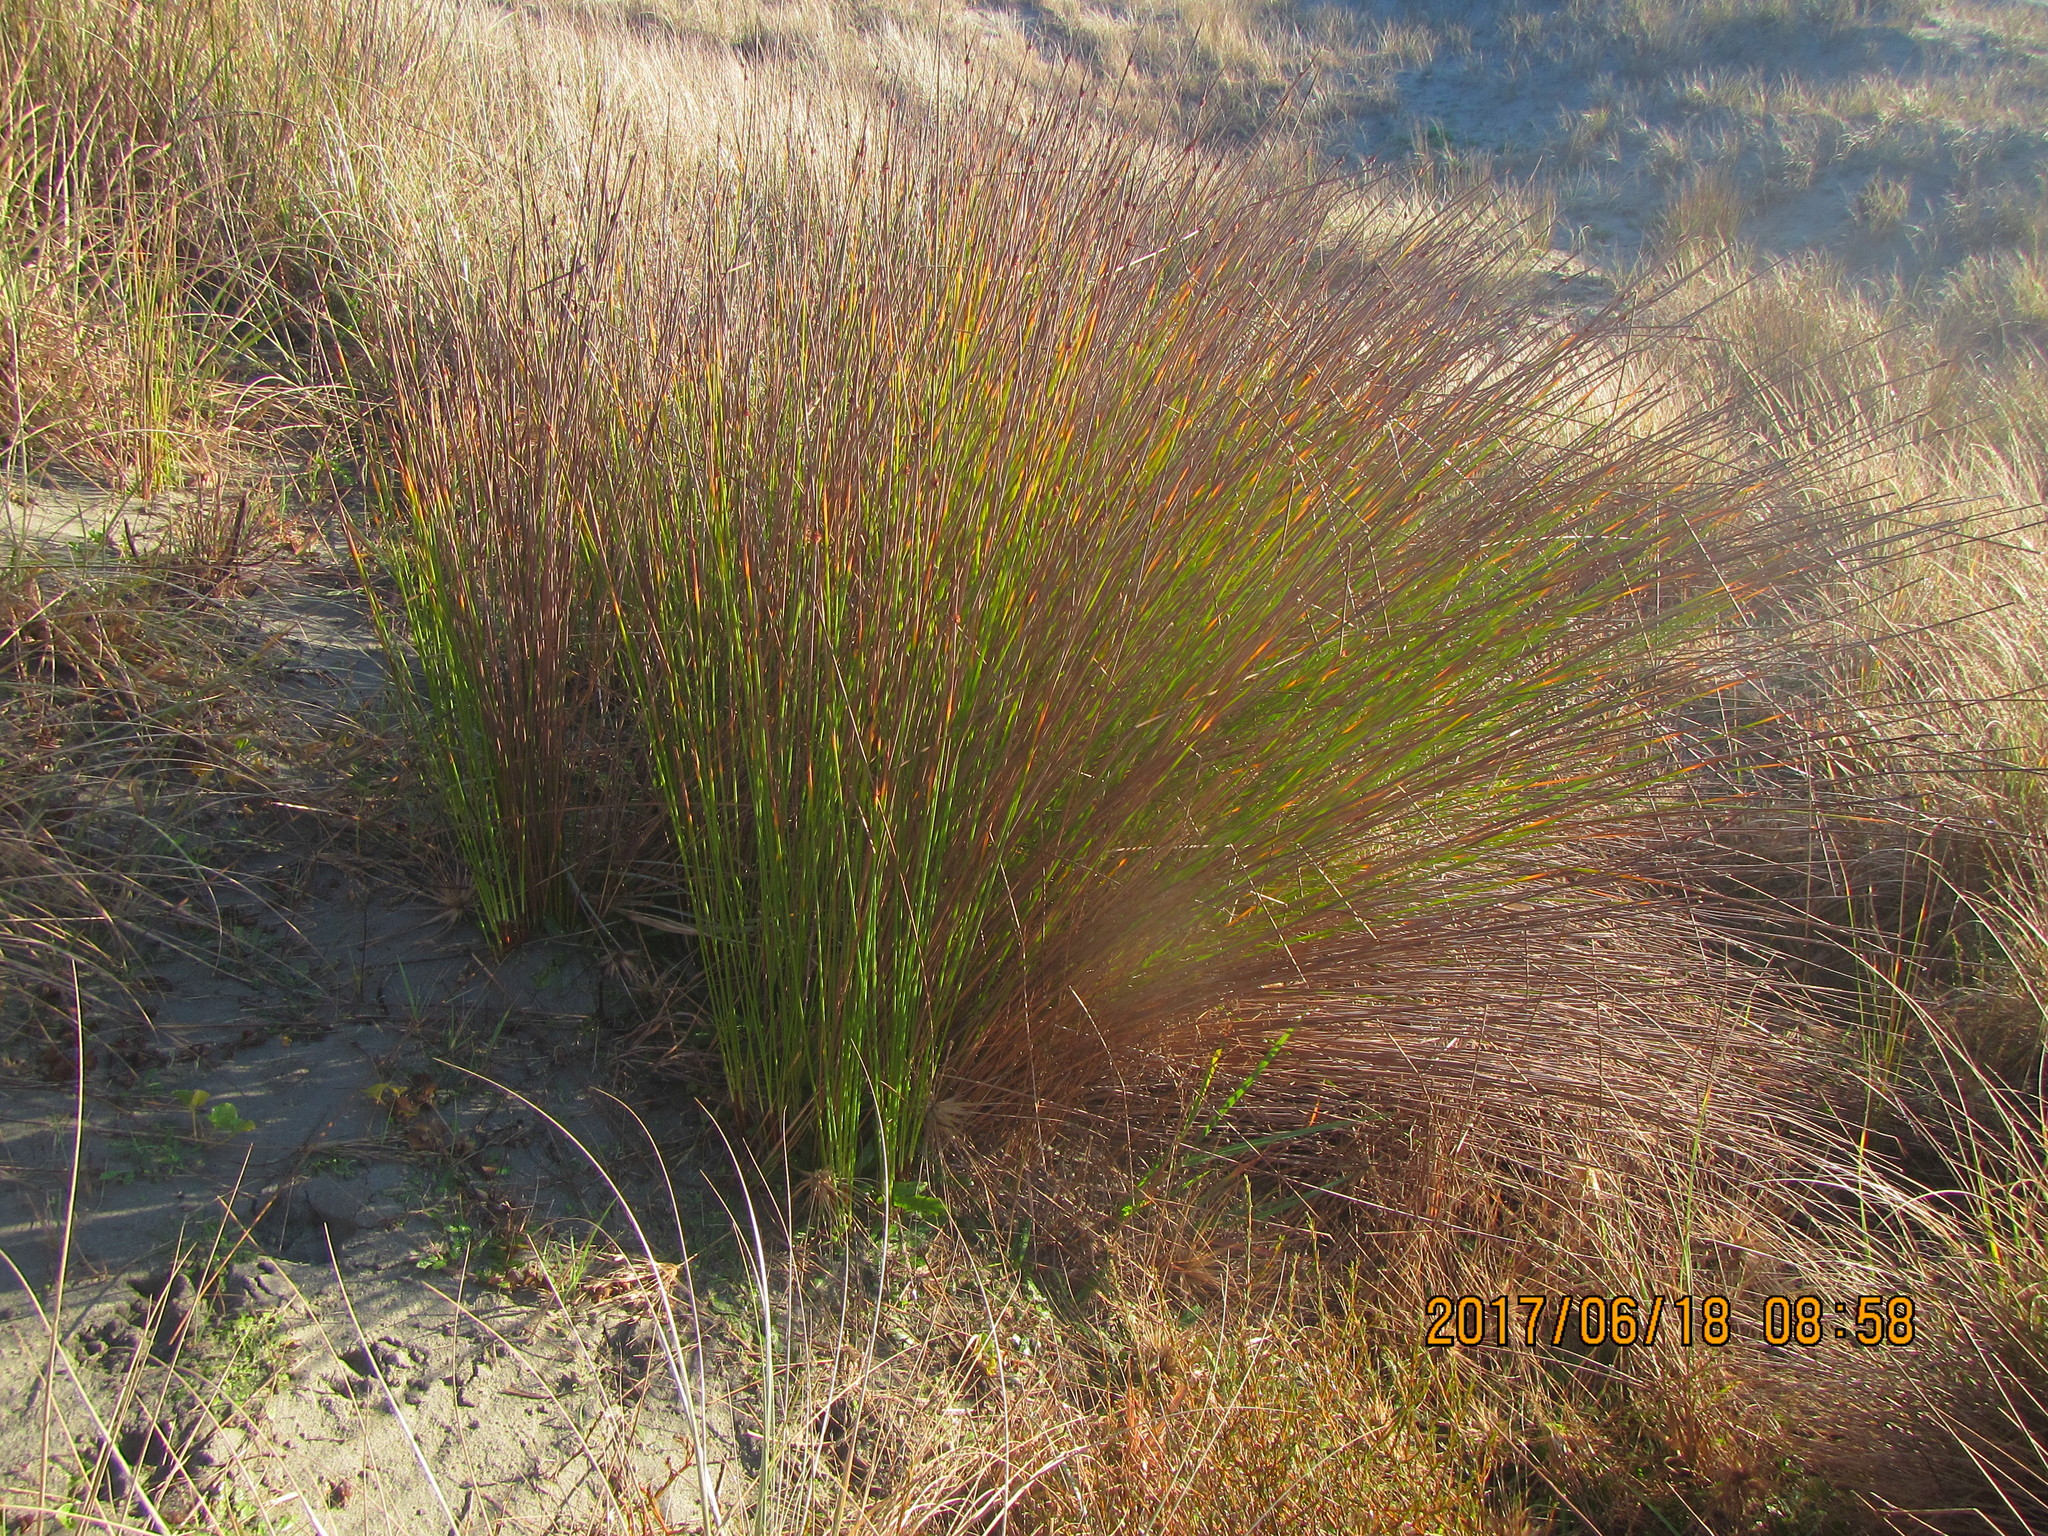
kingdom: Plantae
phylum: Tracheophyta
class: Liliopsida
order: Poales
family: Cyperaceae
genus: Ficinia
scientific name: Ficinia nodosa
